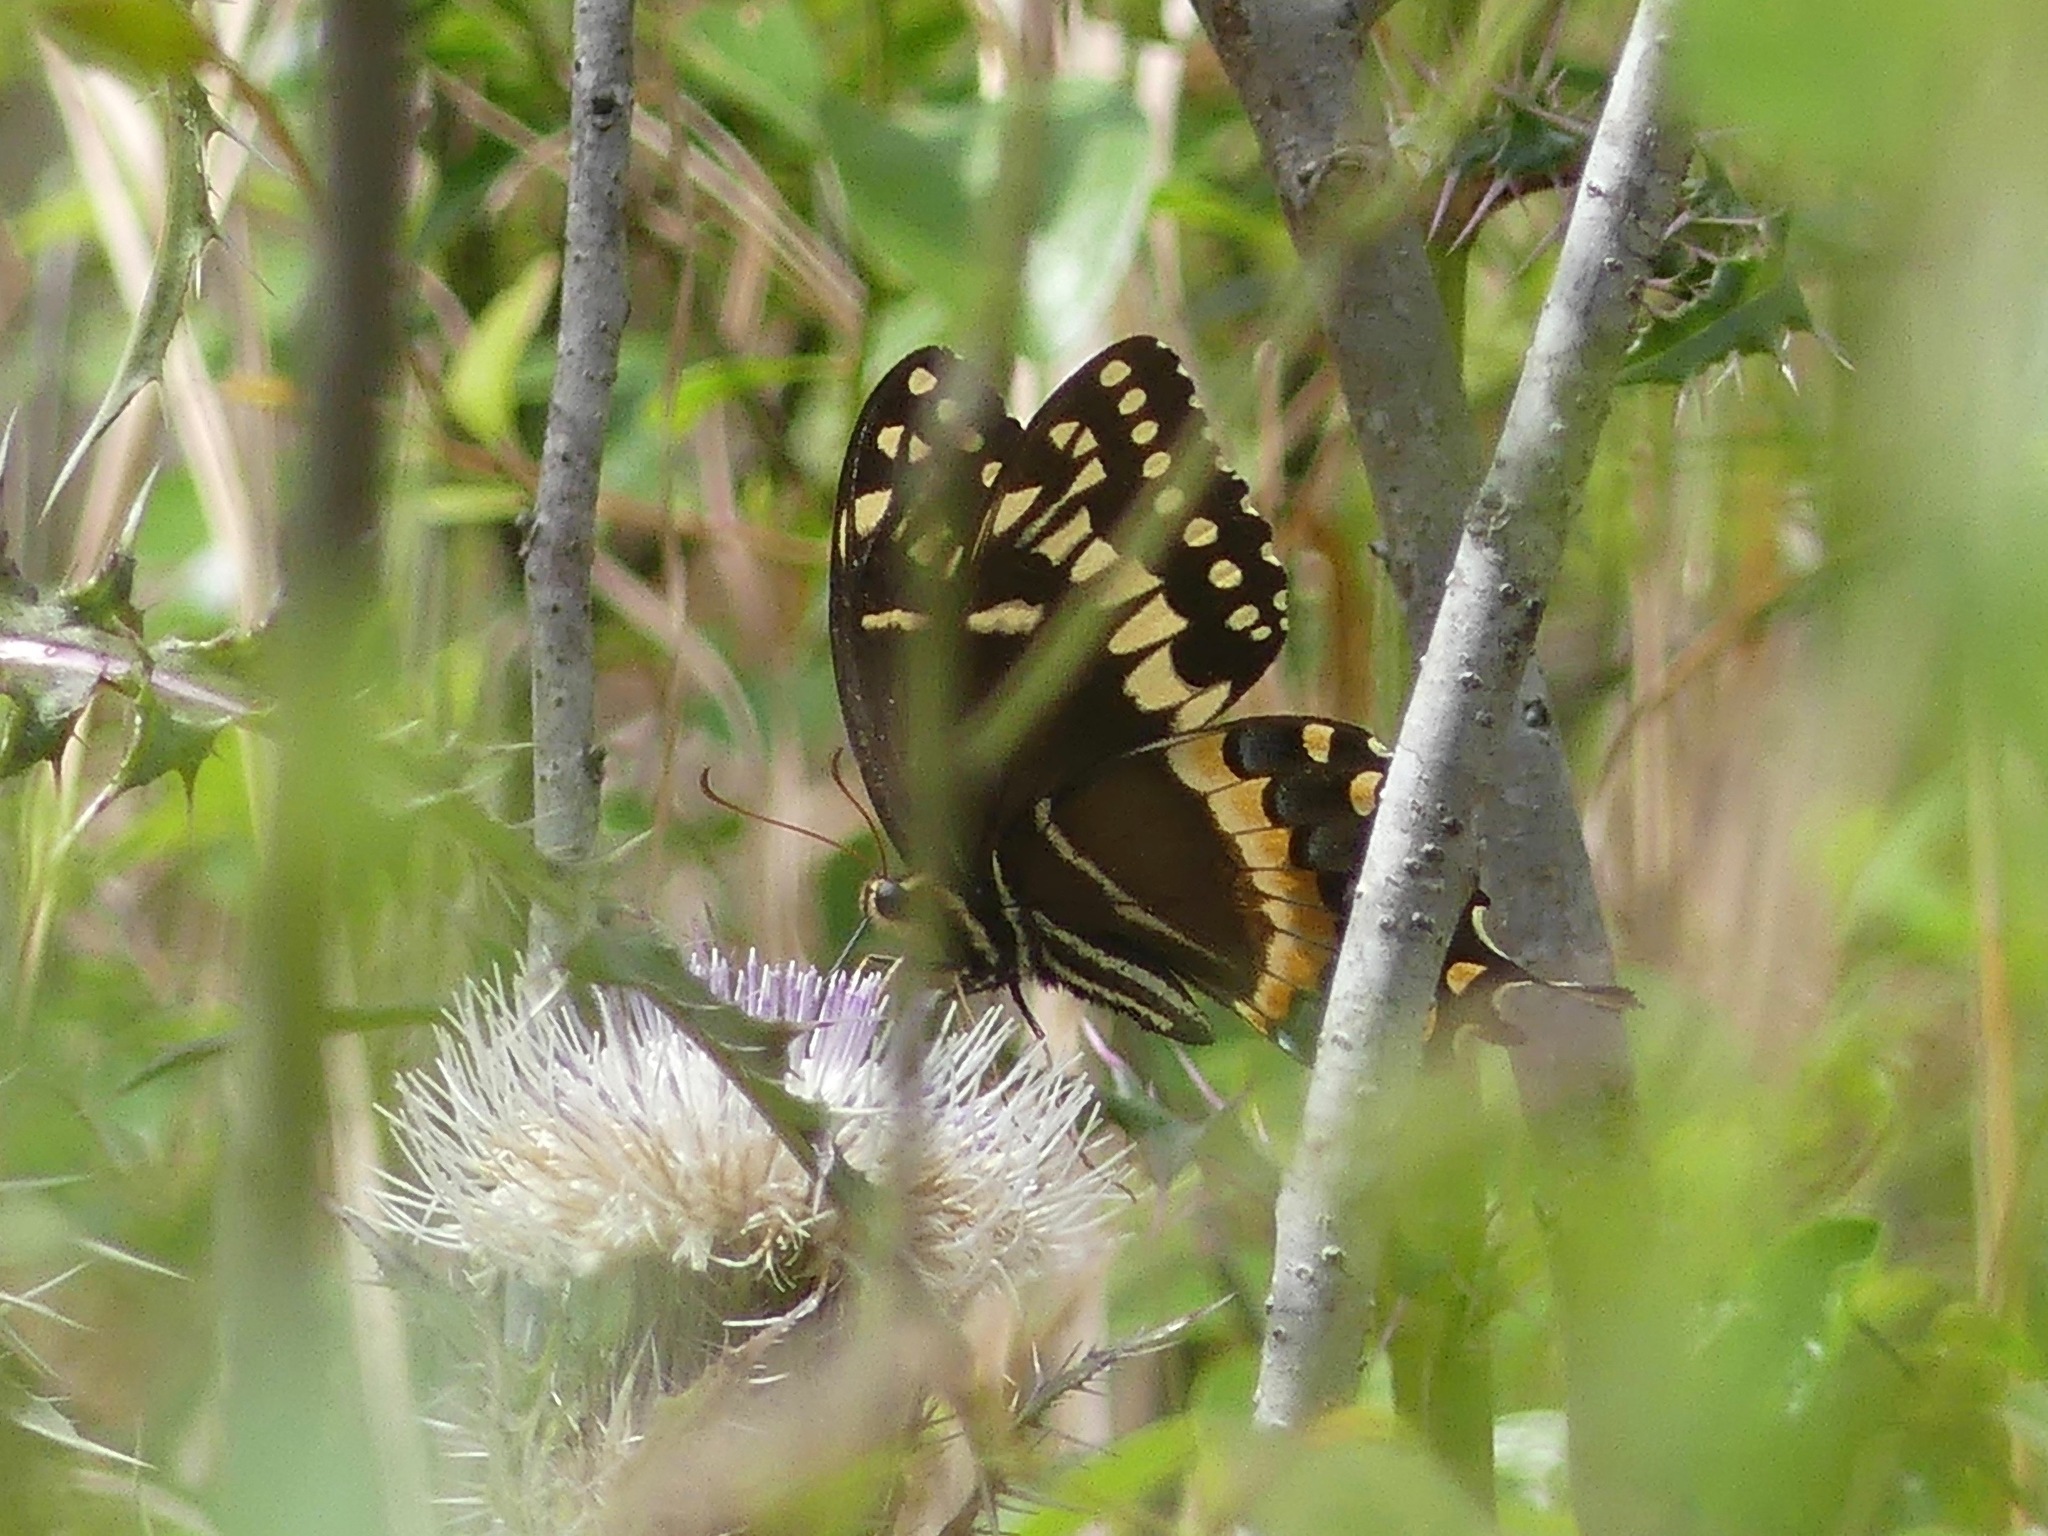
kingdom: Animalia
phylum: Arthropoda
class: Insecta
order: Lepidoptera
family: Papilionidae
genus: Papilio
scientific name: Papilio palamedes
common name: Palamedes swallowtail
